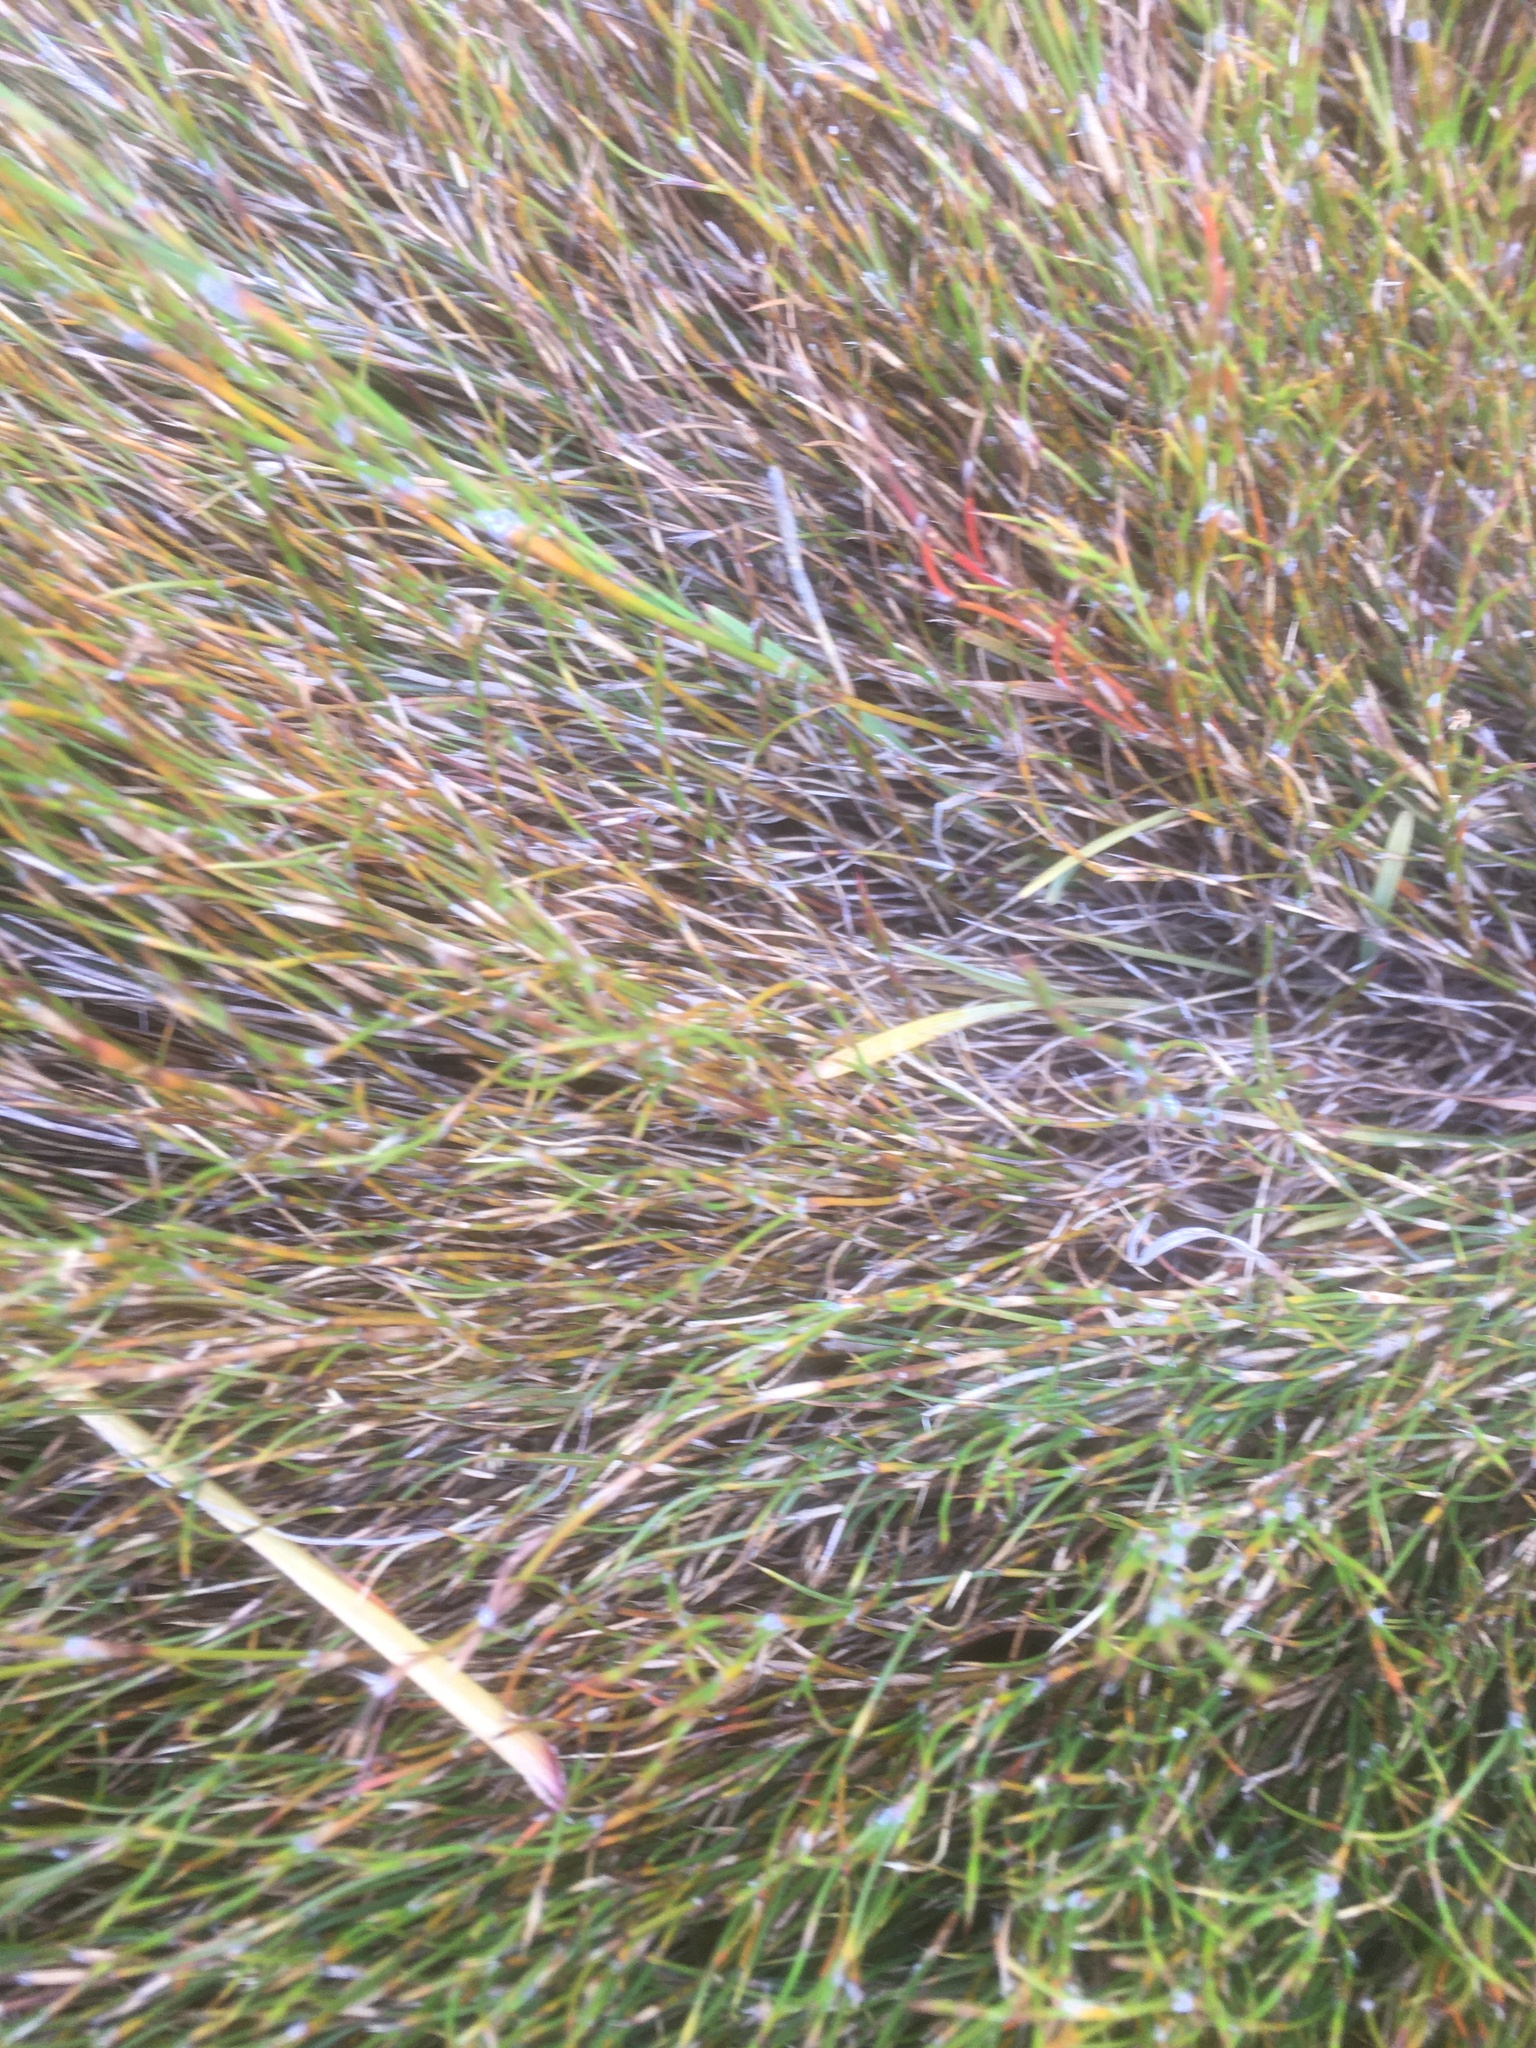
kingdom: Plantae
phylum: Tracheophyta
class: Liliopsida
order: Poales
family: Restionaceae
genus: Empodisma
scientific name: Empodisma minus
